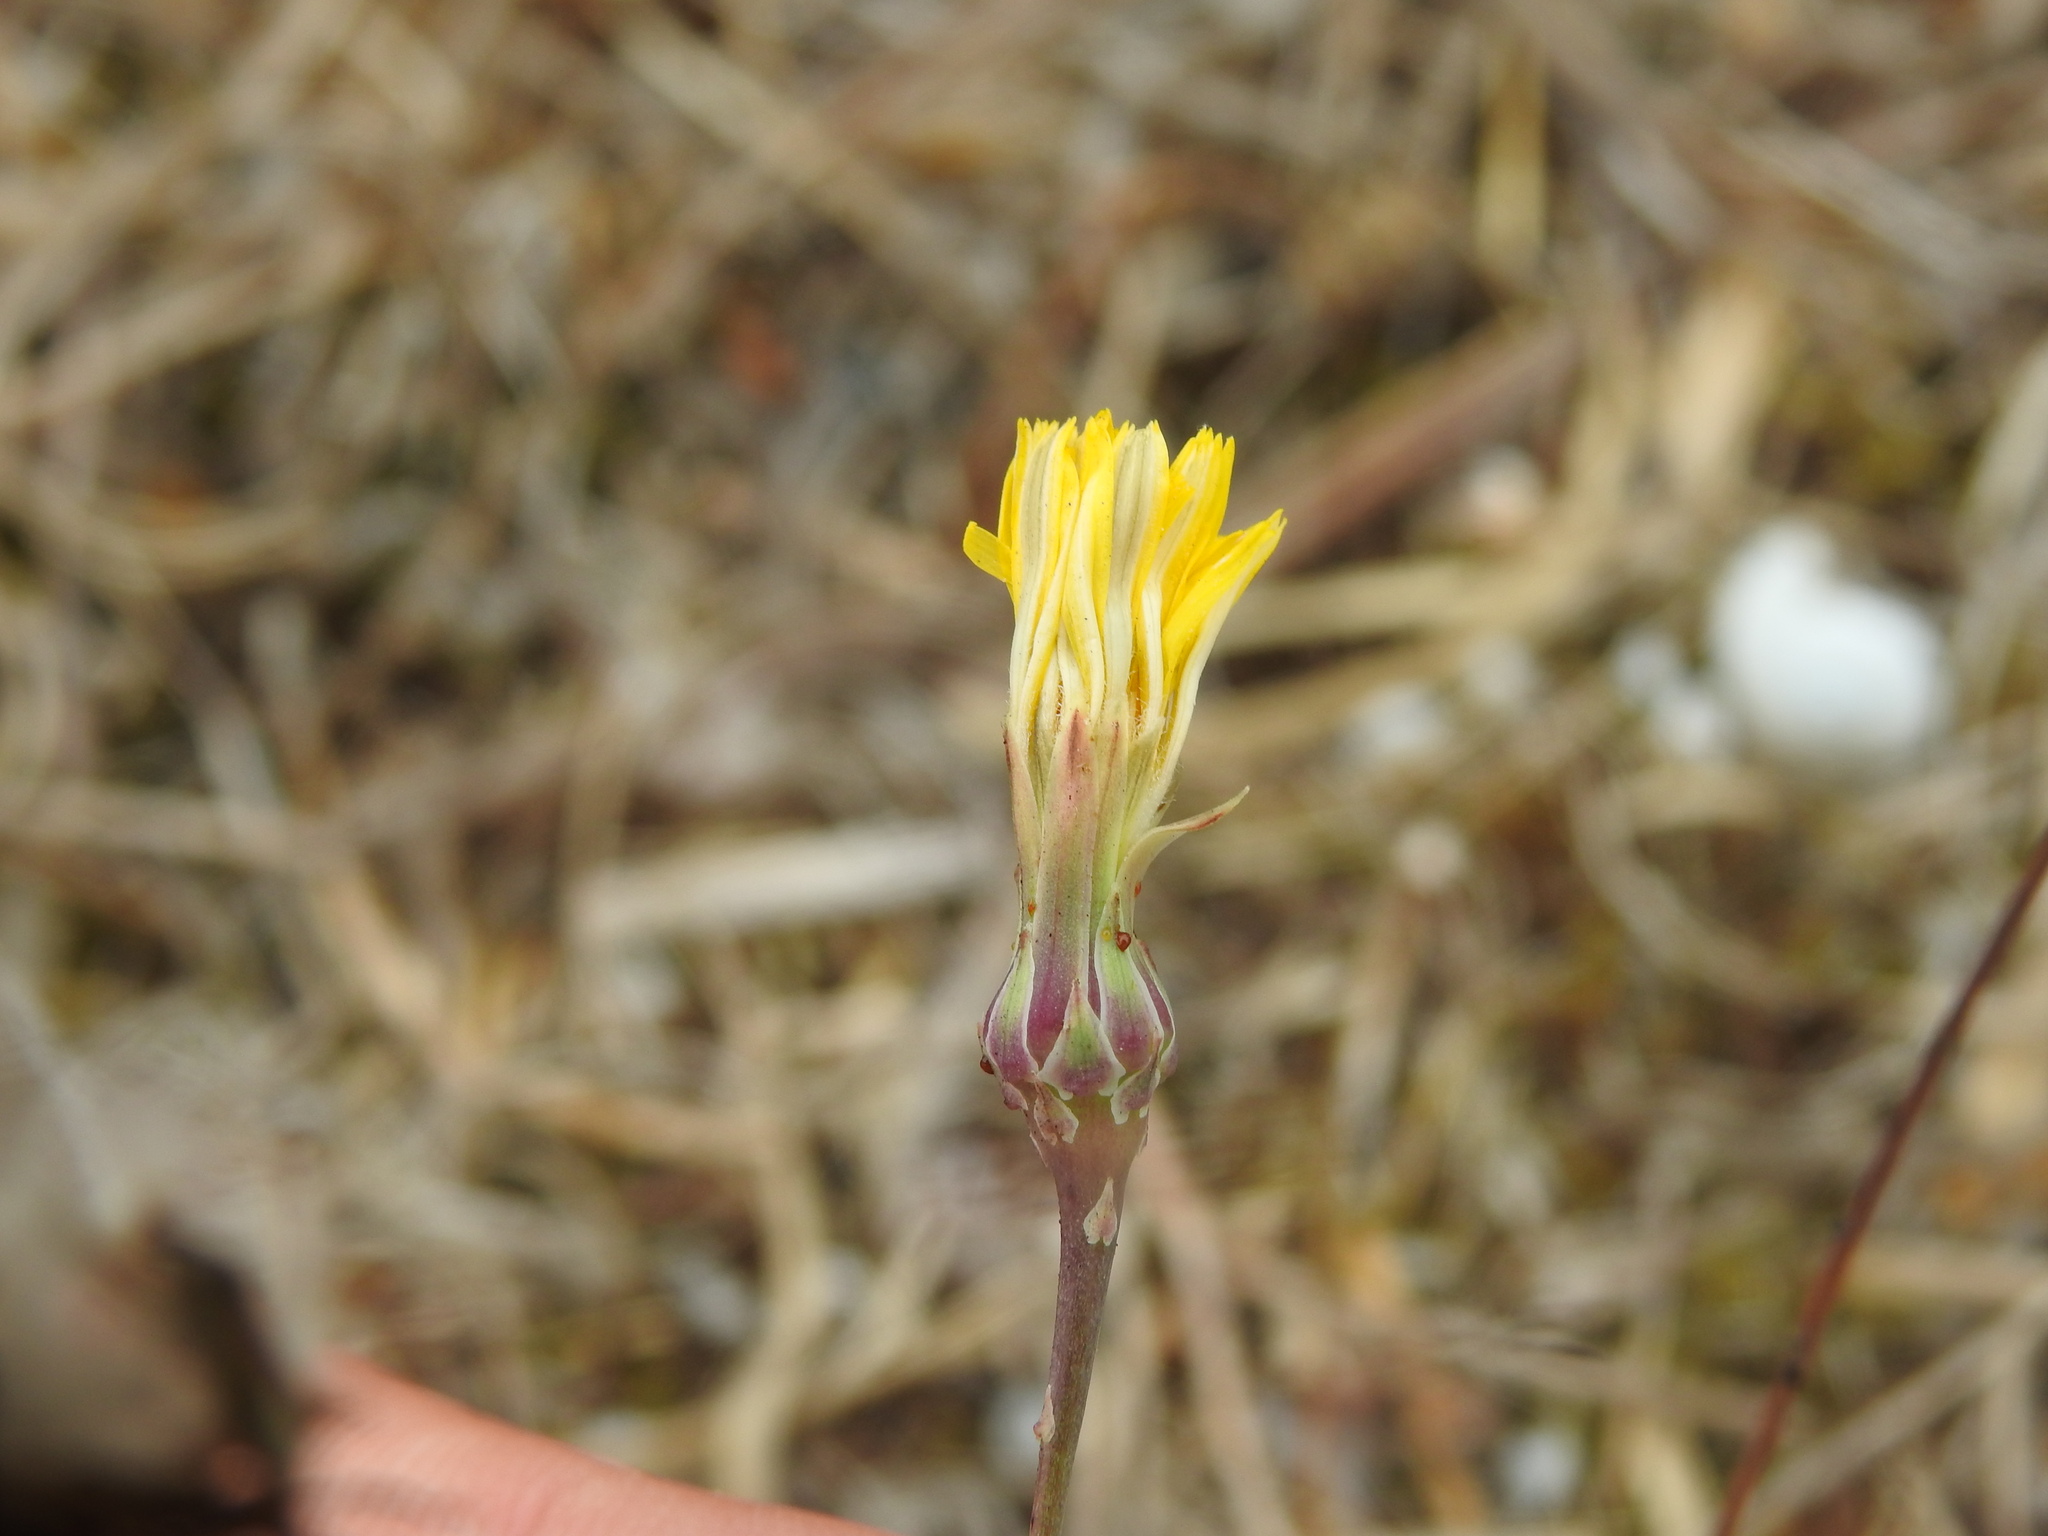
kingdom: Plantae
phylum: Tracheophyta
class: Magnoliopsida
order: Asterales
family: Asteraceae
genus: Reichardia
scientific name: Reichardia picroides
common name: Common brighteyes
